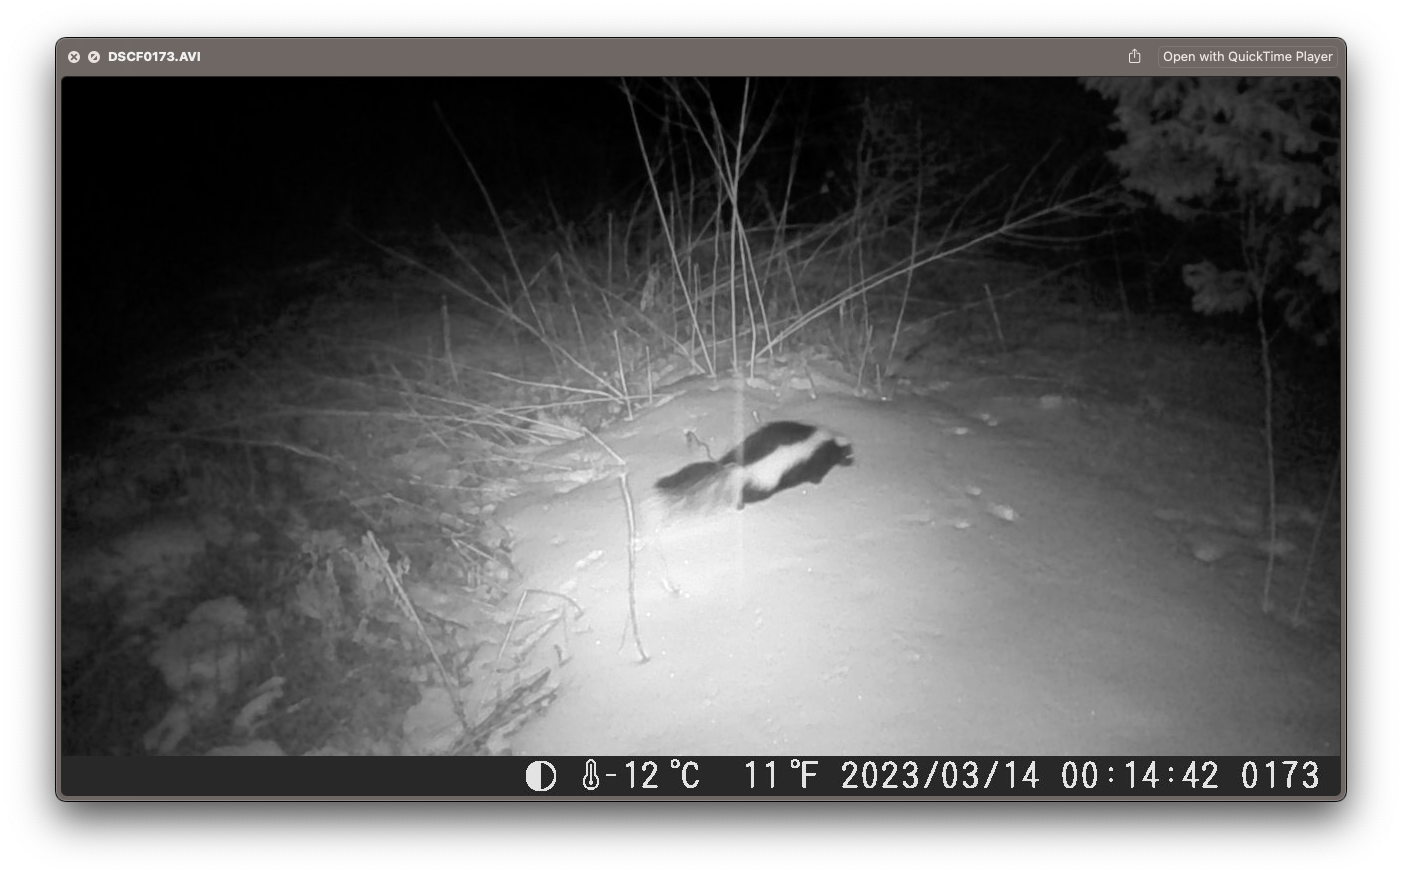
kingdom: Animalia
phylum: Chordata
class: Mammalia
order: Carnivora
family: Mephitidae
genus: Mephitis
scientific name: Mephitis mephitis
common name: Striped skunk
